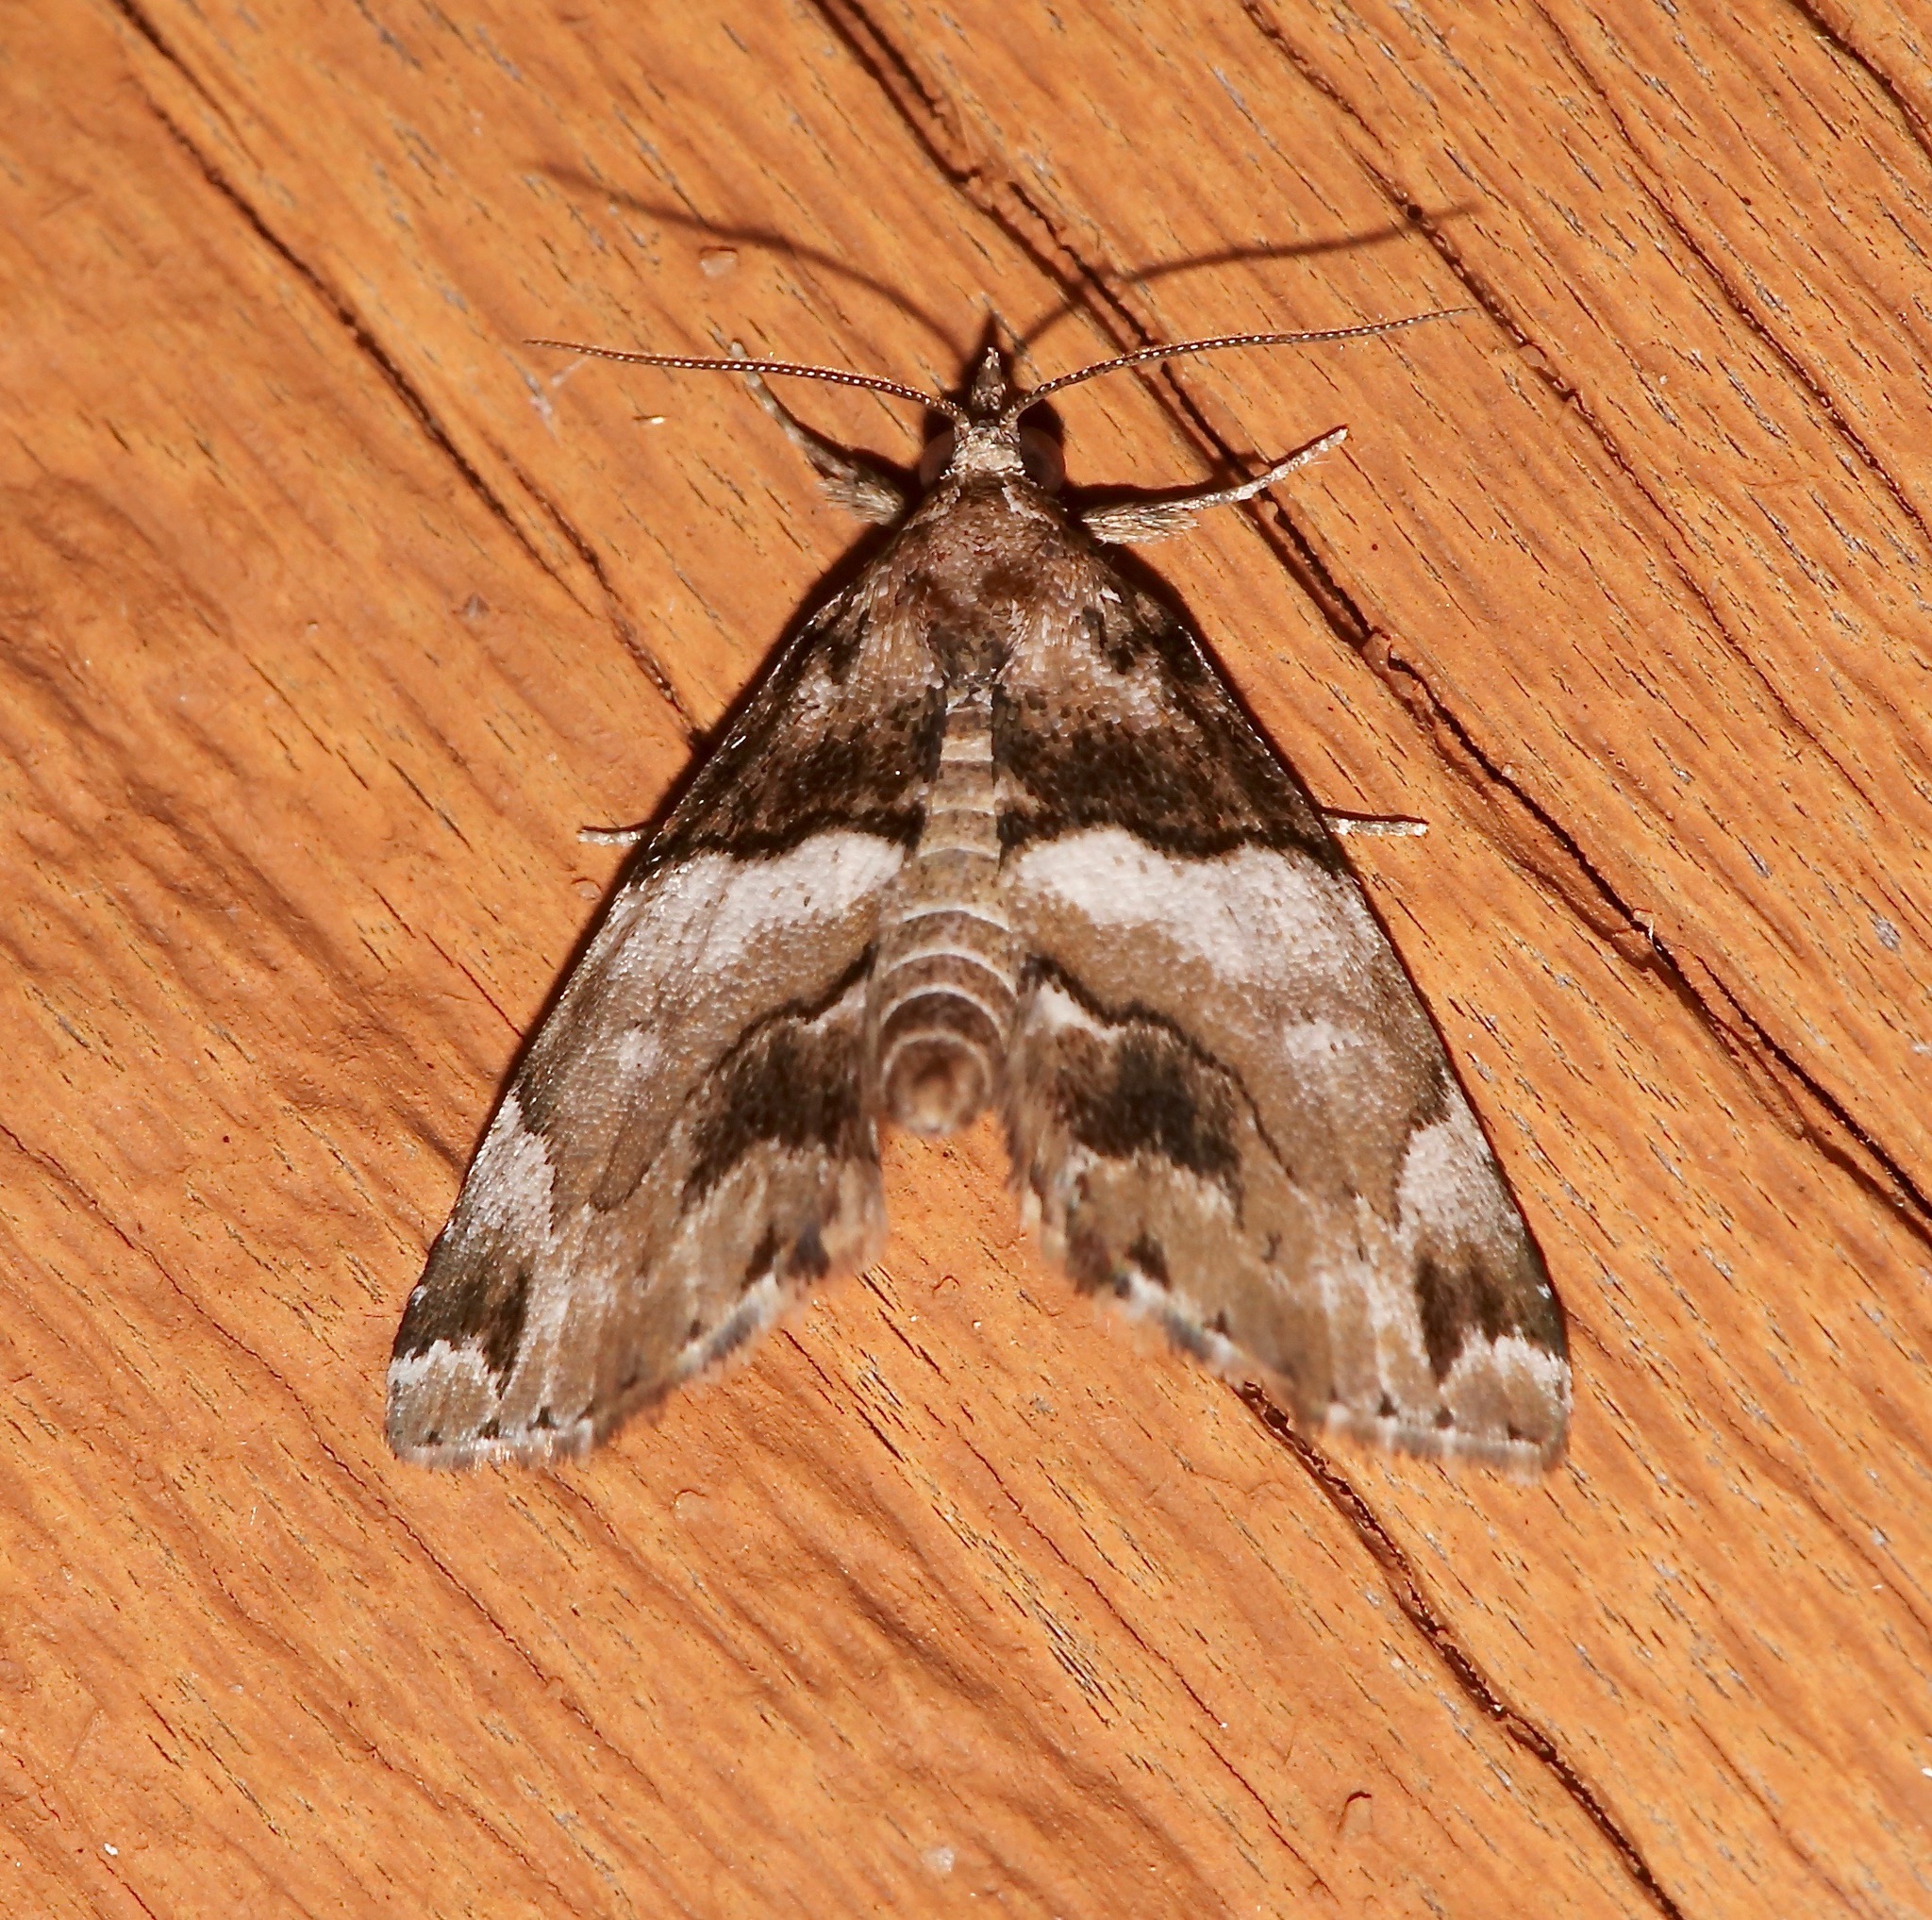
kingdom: Animalia
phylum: Arthropoda
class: Insecta
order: Lepidoptera
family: Erebidae
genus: Cutina
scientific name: Cutina distincta
